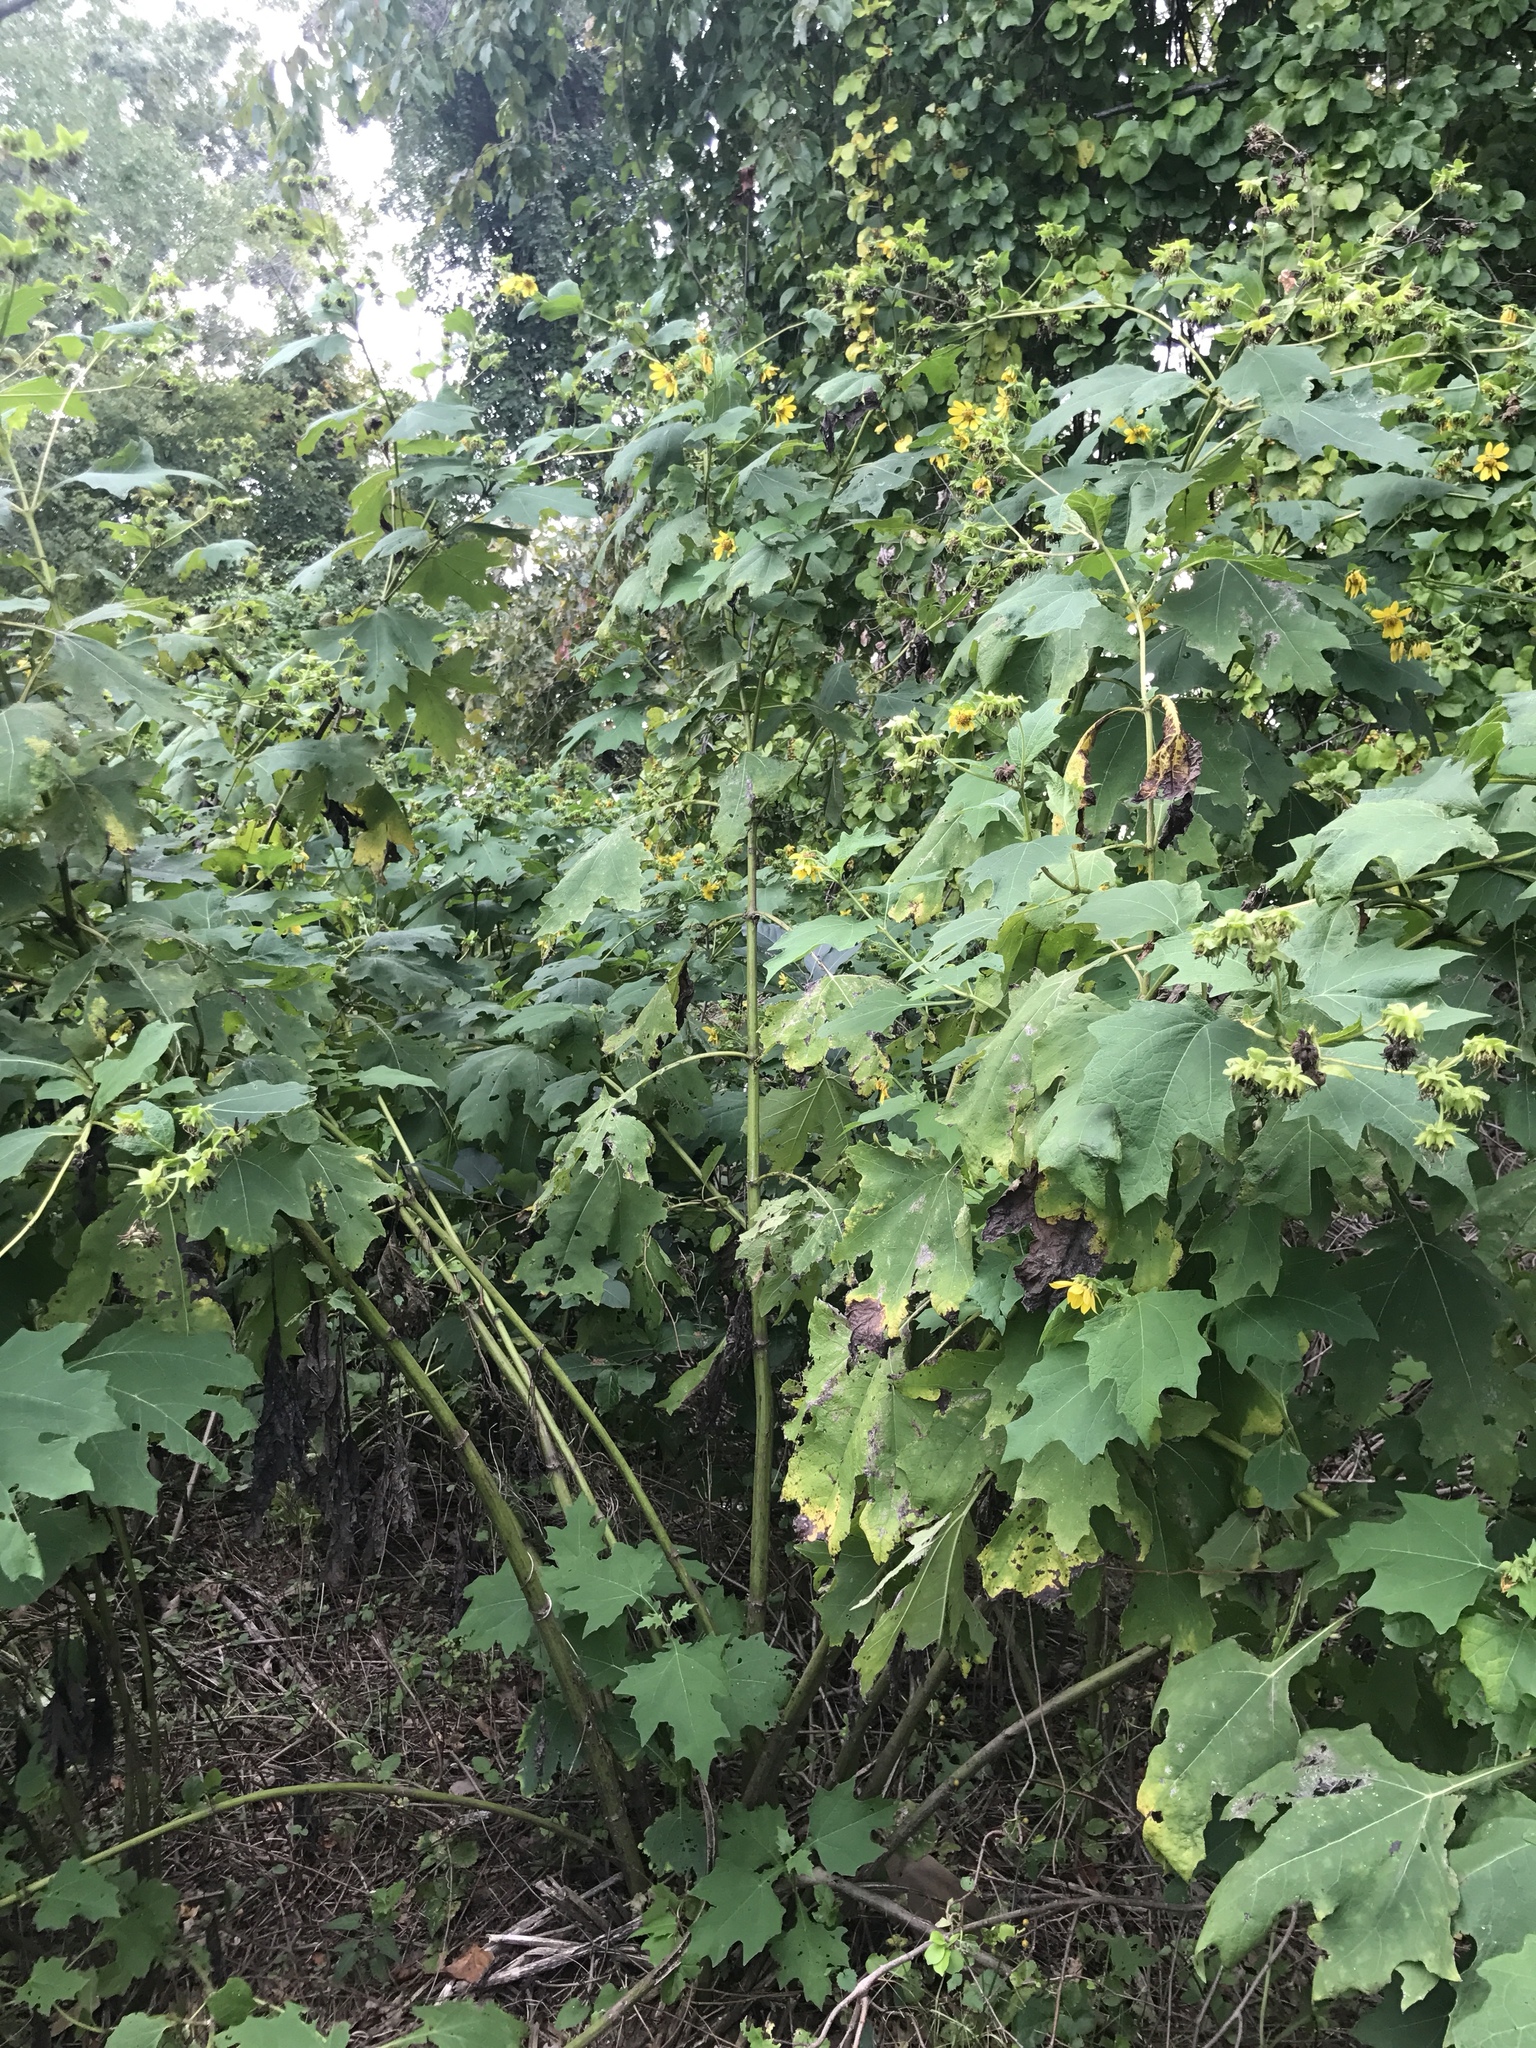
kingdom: Plantae
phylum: Tracheophyta
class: Magnoliopsida
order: Asterales
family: Asteraceae
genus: Smallanthus
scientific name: Smallanthus uvedalia
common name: Bear's-foot
